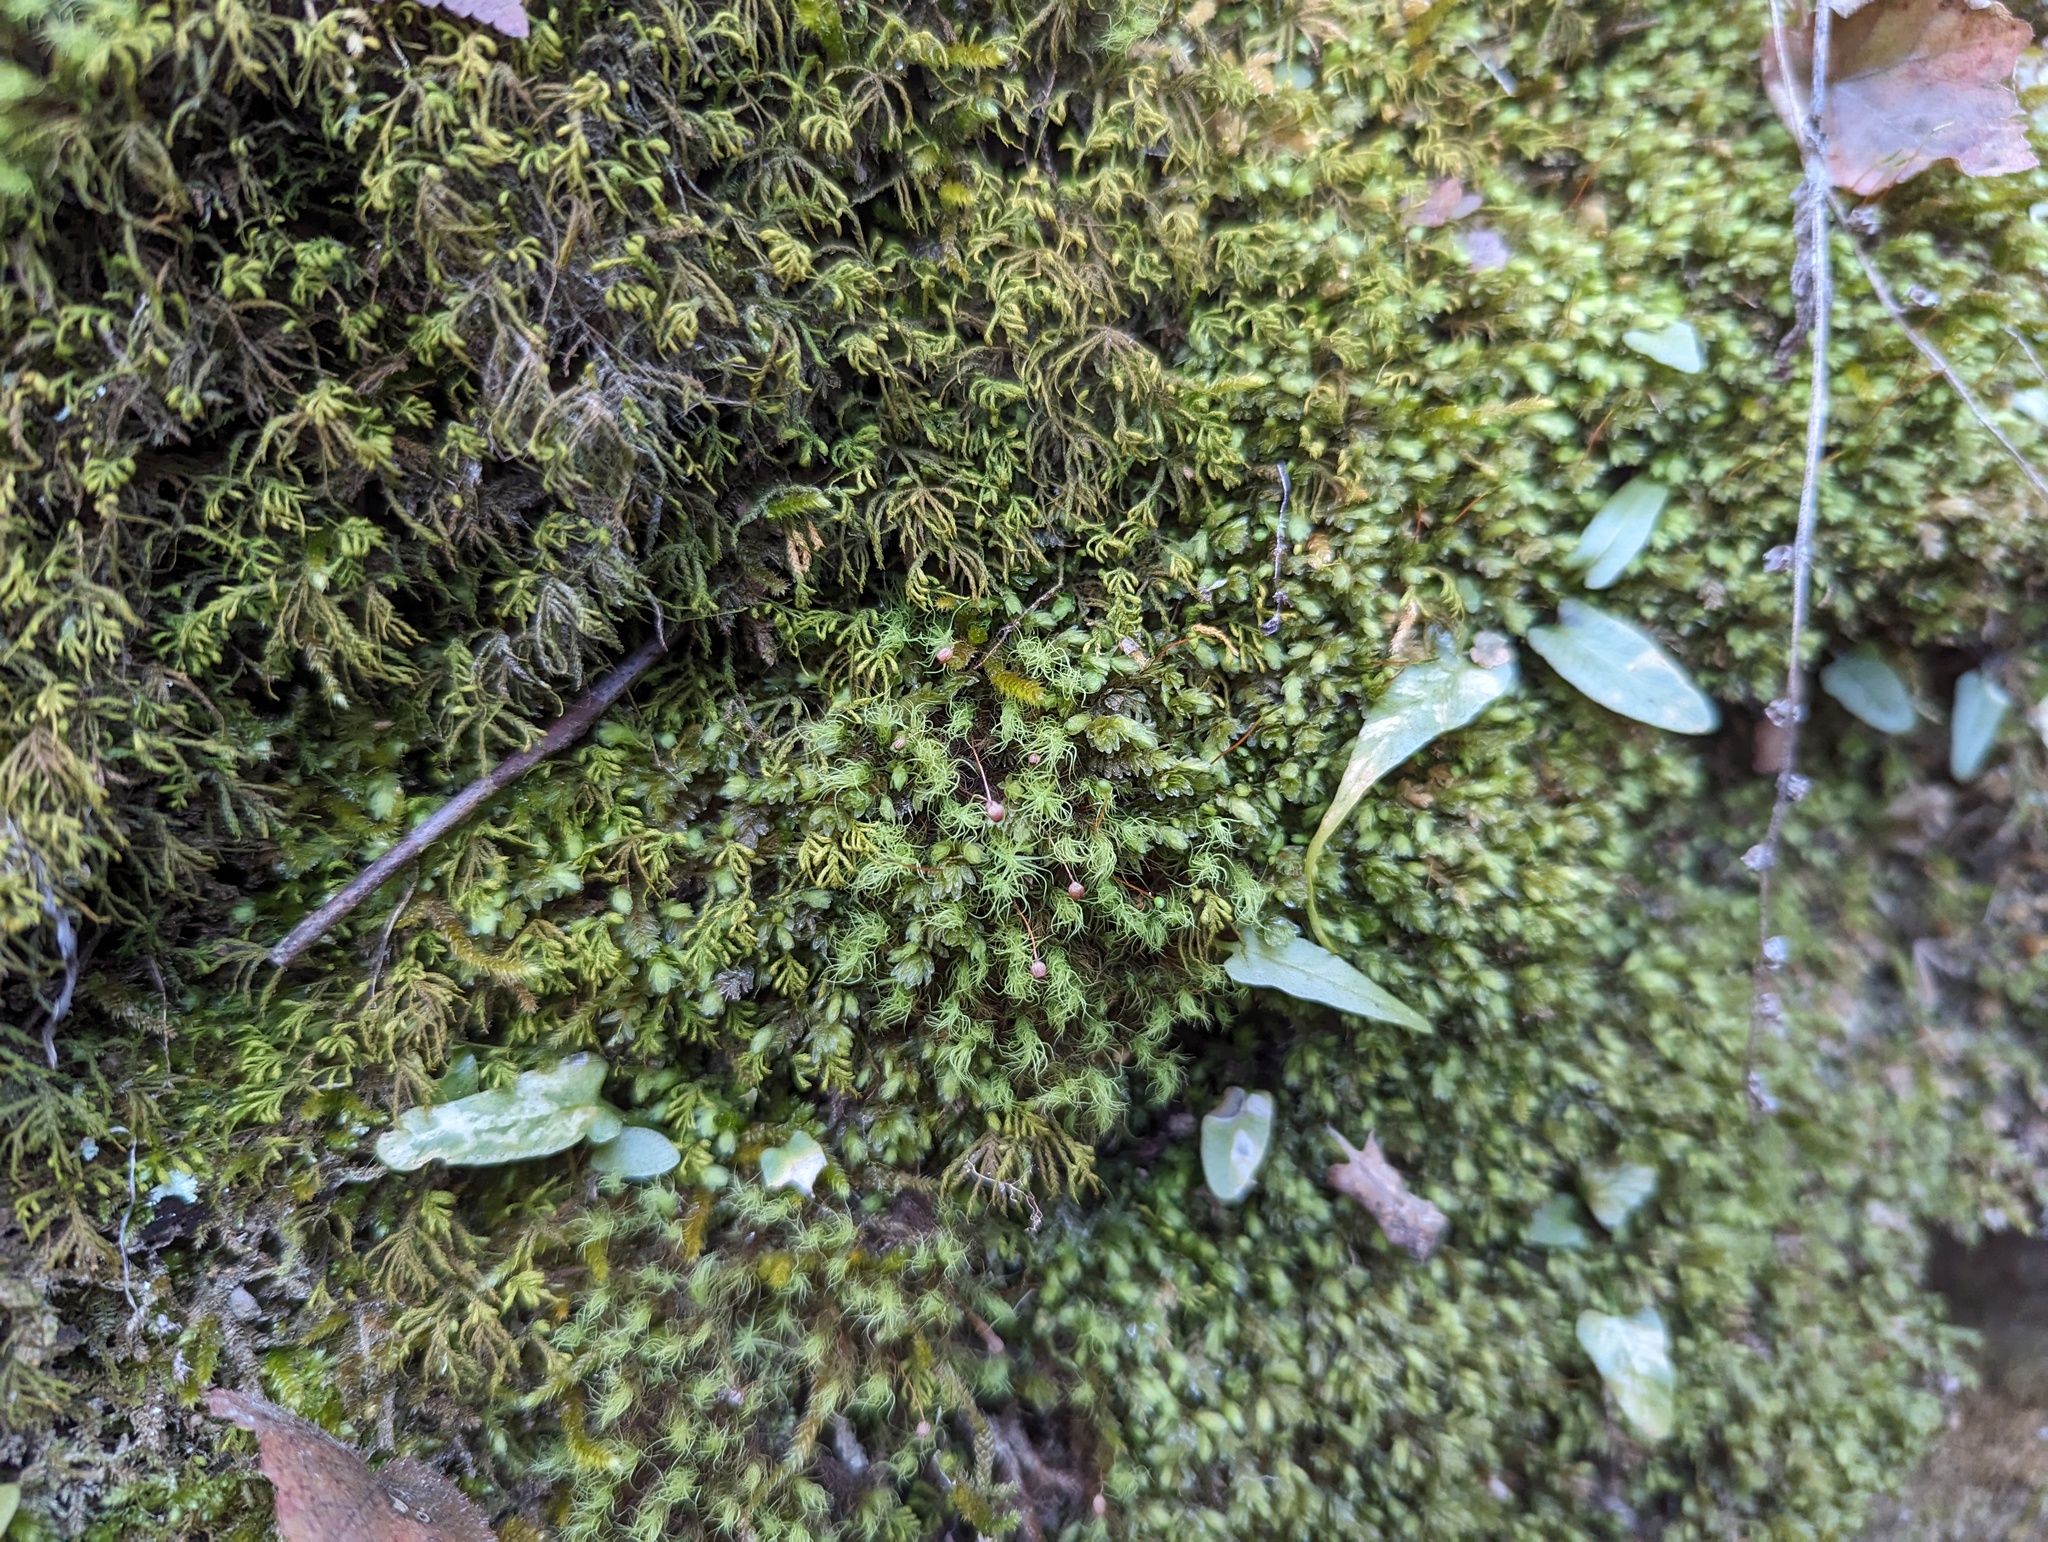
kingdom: Plantae
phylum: Bryophyta
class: Bryopsida
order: Bartramiales
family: Bartramiaceae
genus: Bartramia
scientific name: Bartramia ithyphylla
